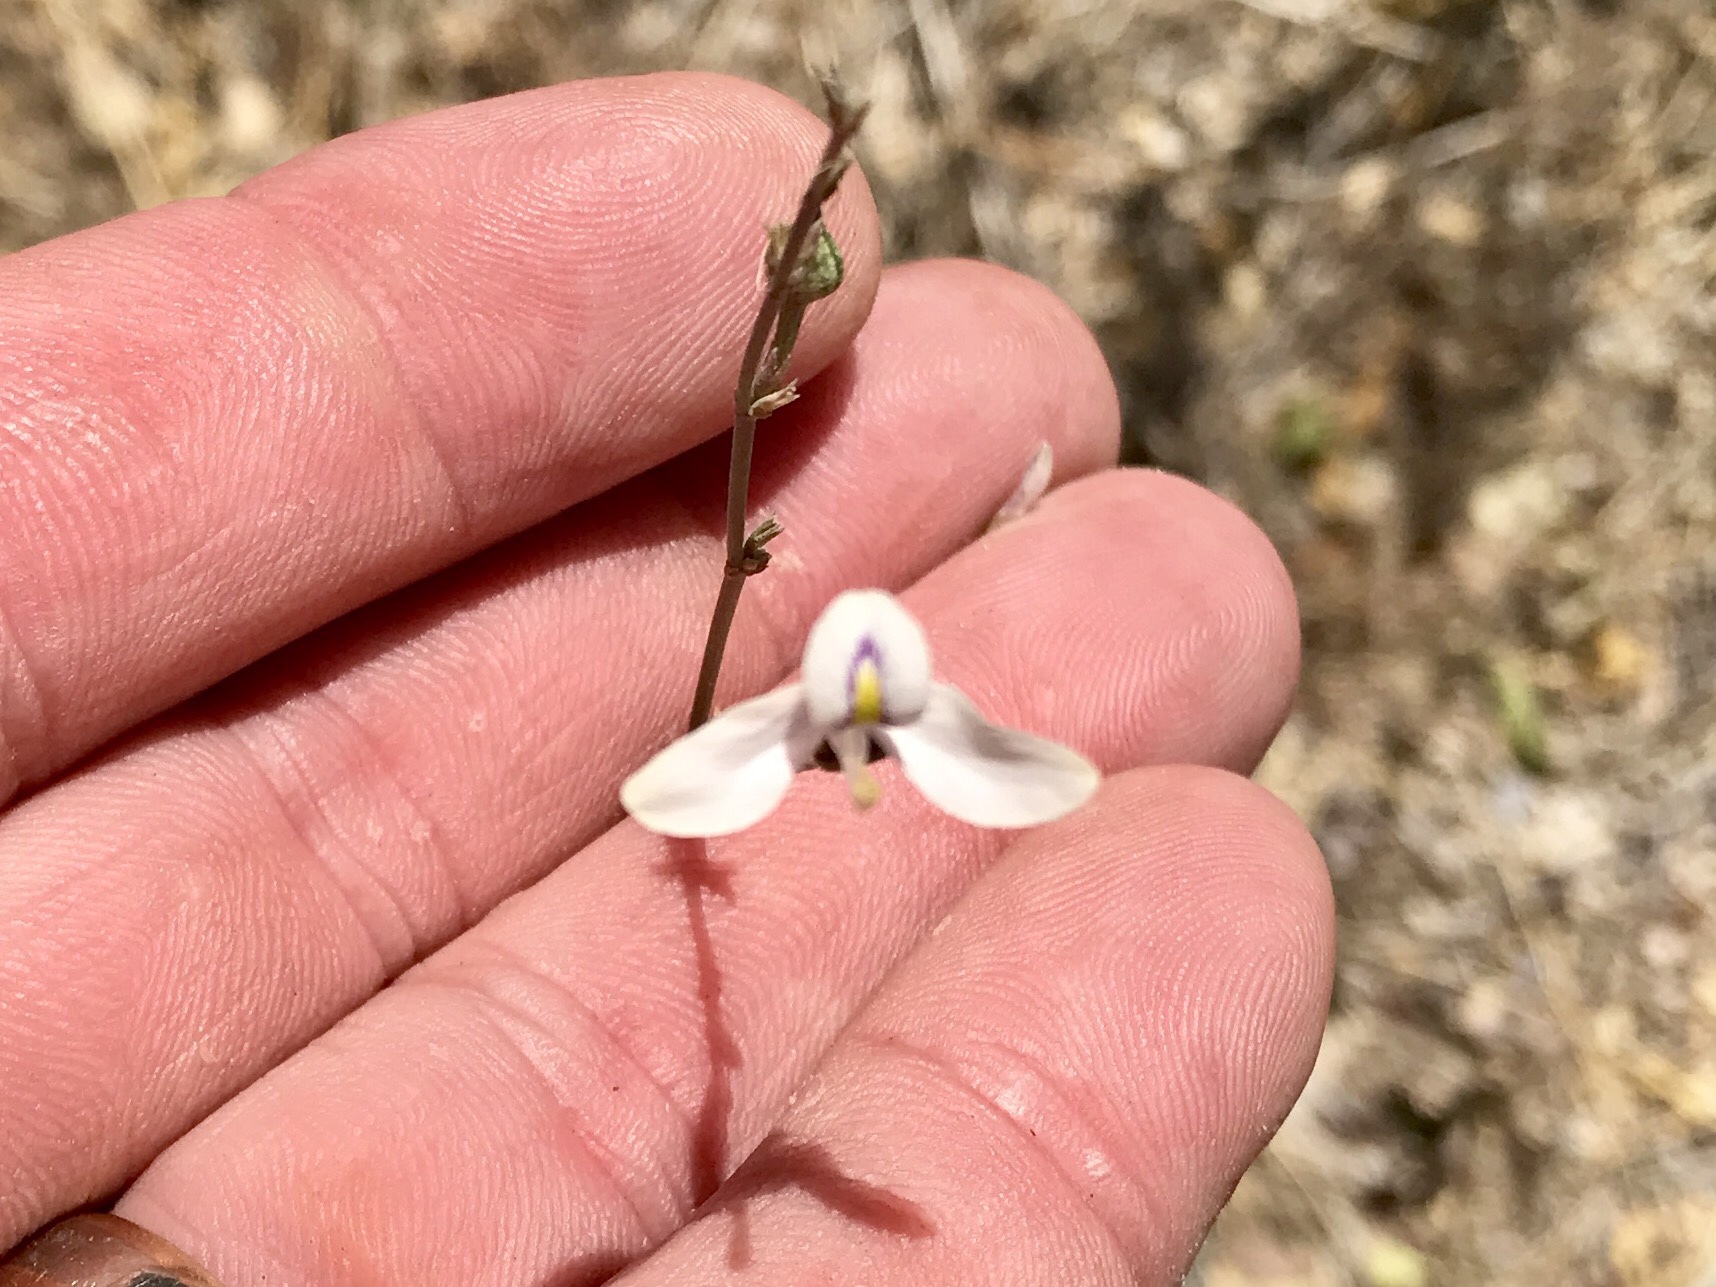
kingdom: Plantae
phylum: Tracheophyta
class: Magnoliopsida
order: Lamiales
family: Acanthaceae
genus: Carlowrightia
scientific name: Carlowrightia arizonica
